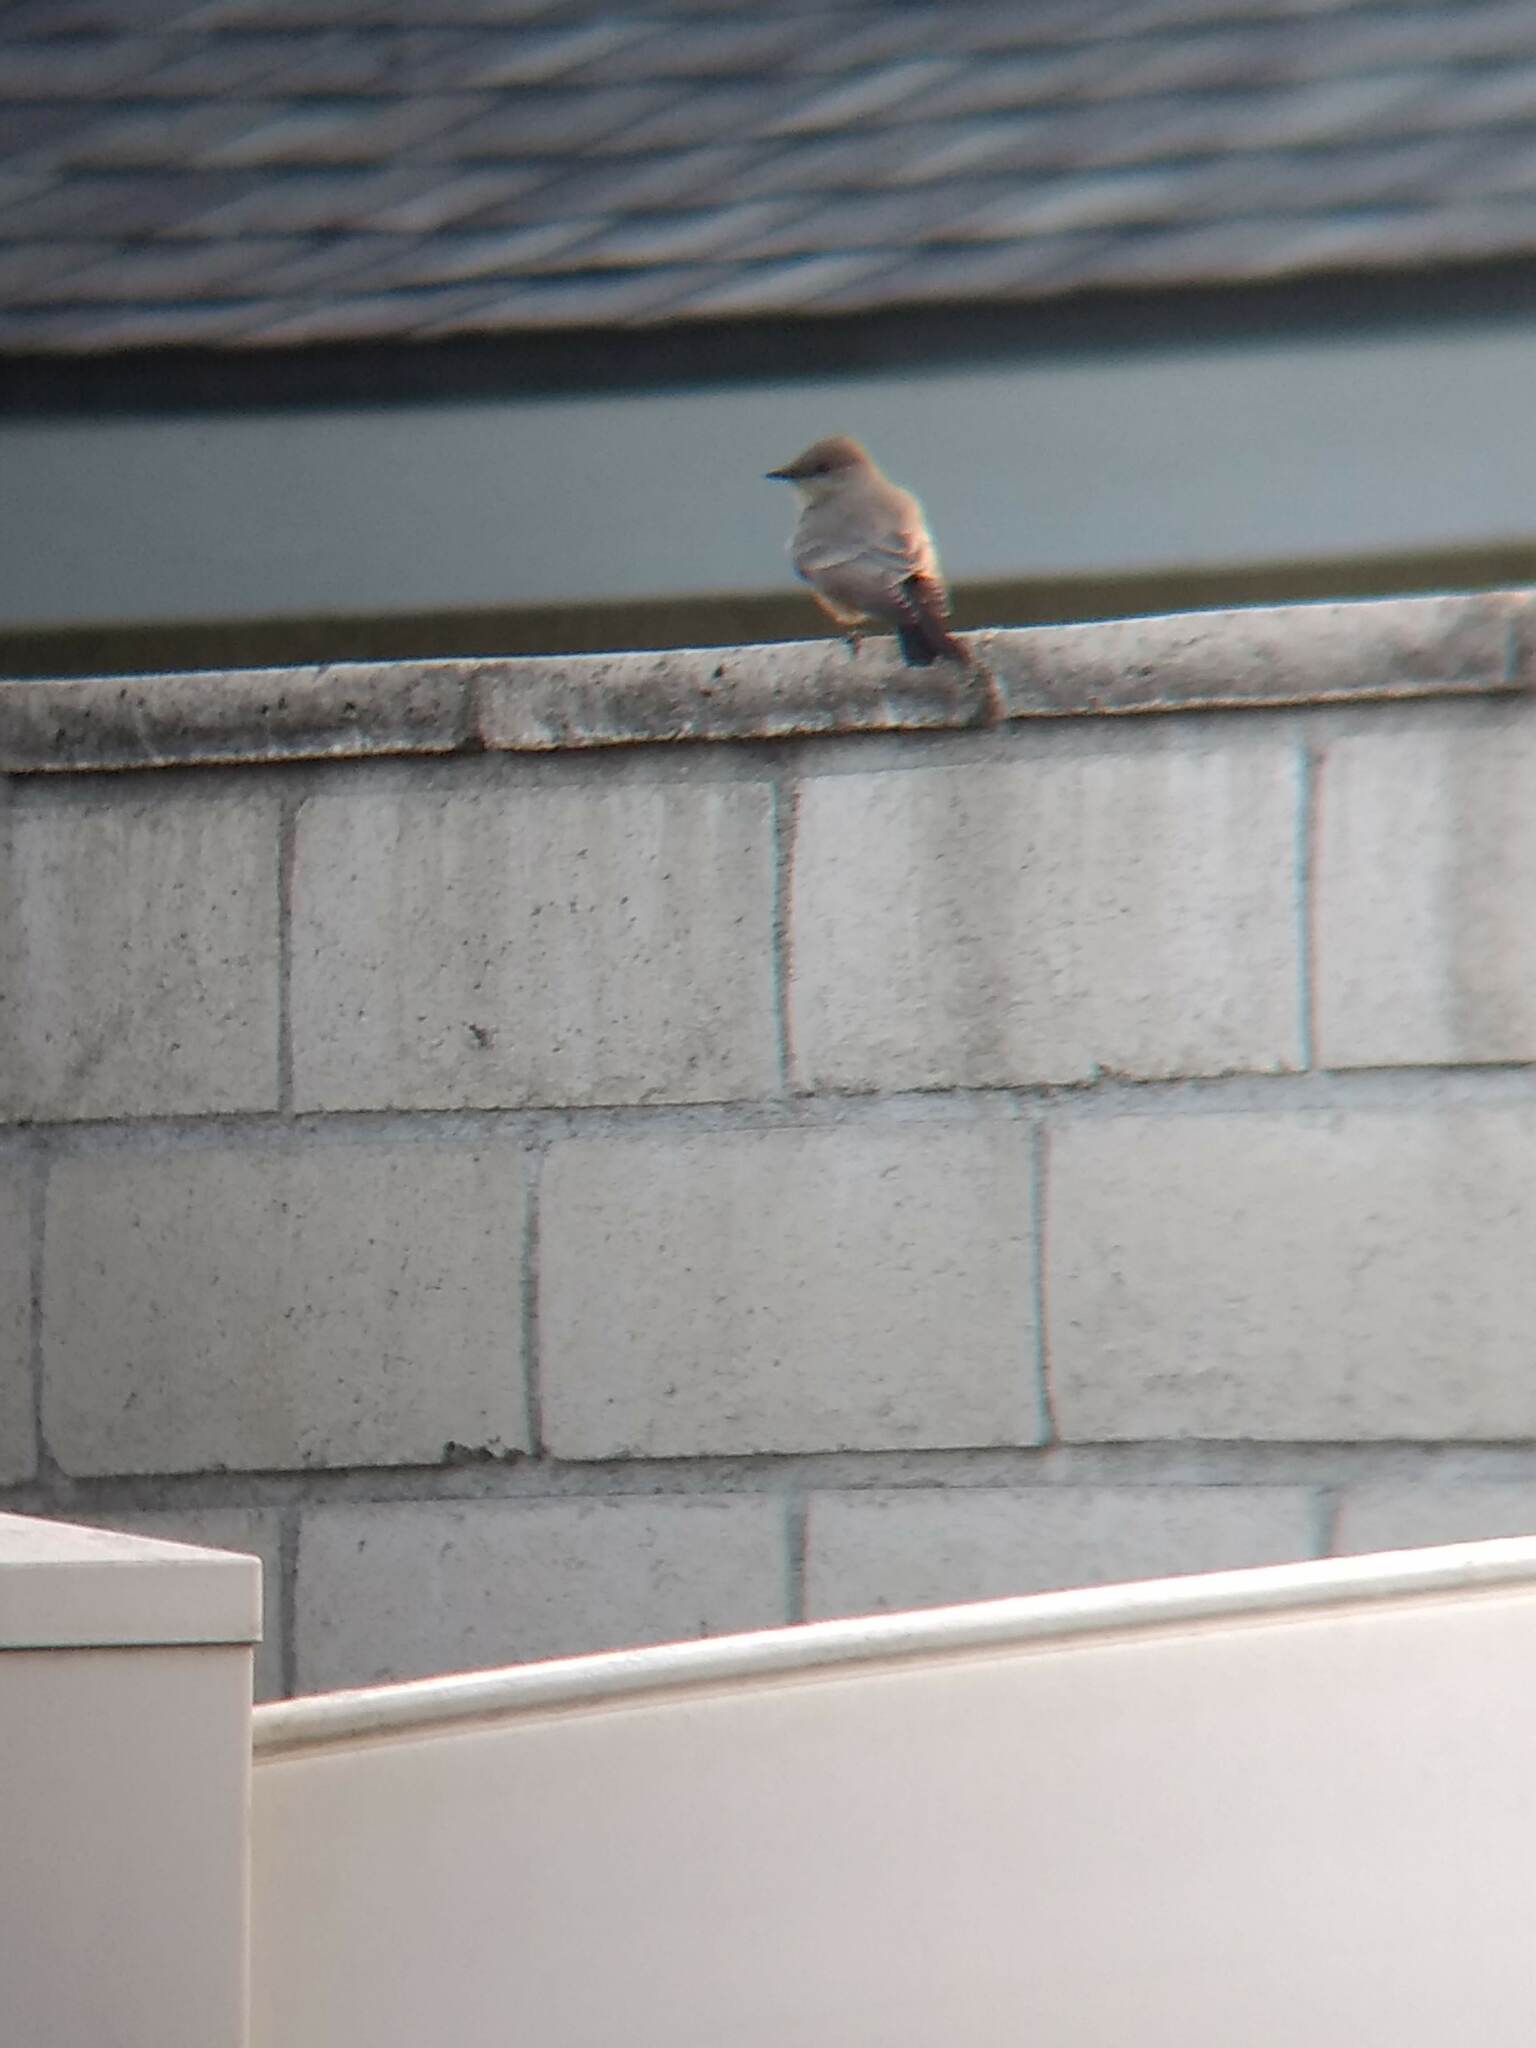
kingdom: Animalia
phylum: Chordata
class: Aves
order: Passeriformes
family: Tyrannidae
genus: Sayornis
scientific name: Sayornis saya
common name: Say's phoebe
